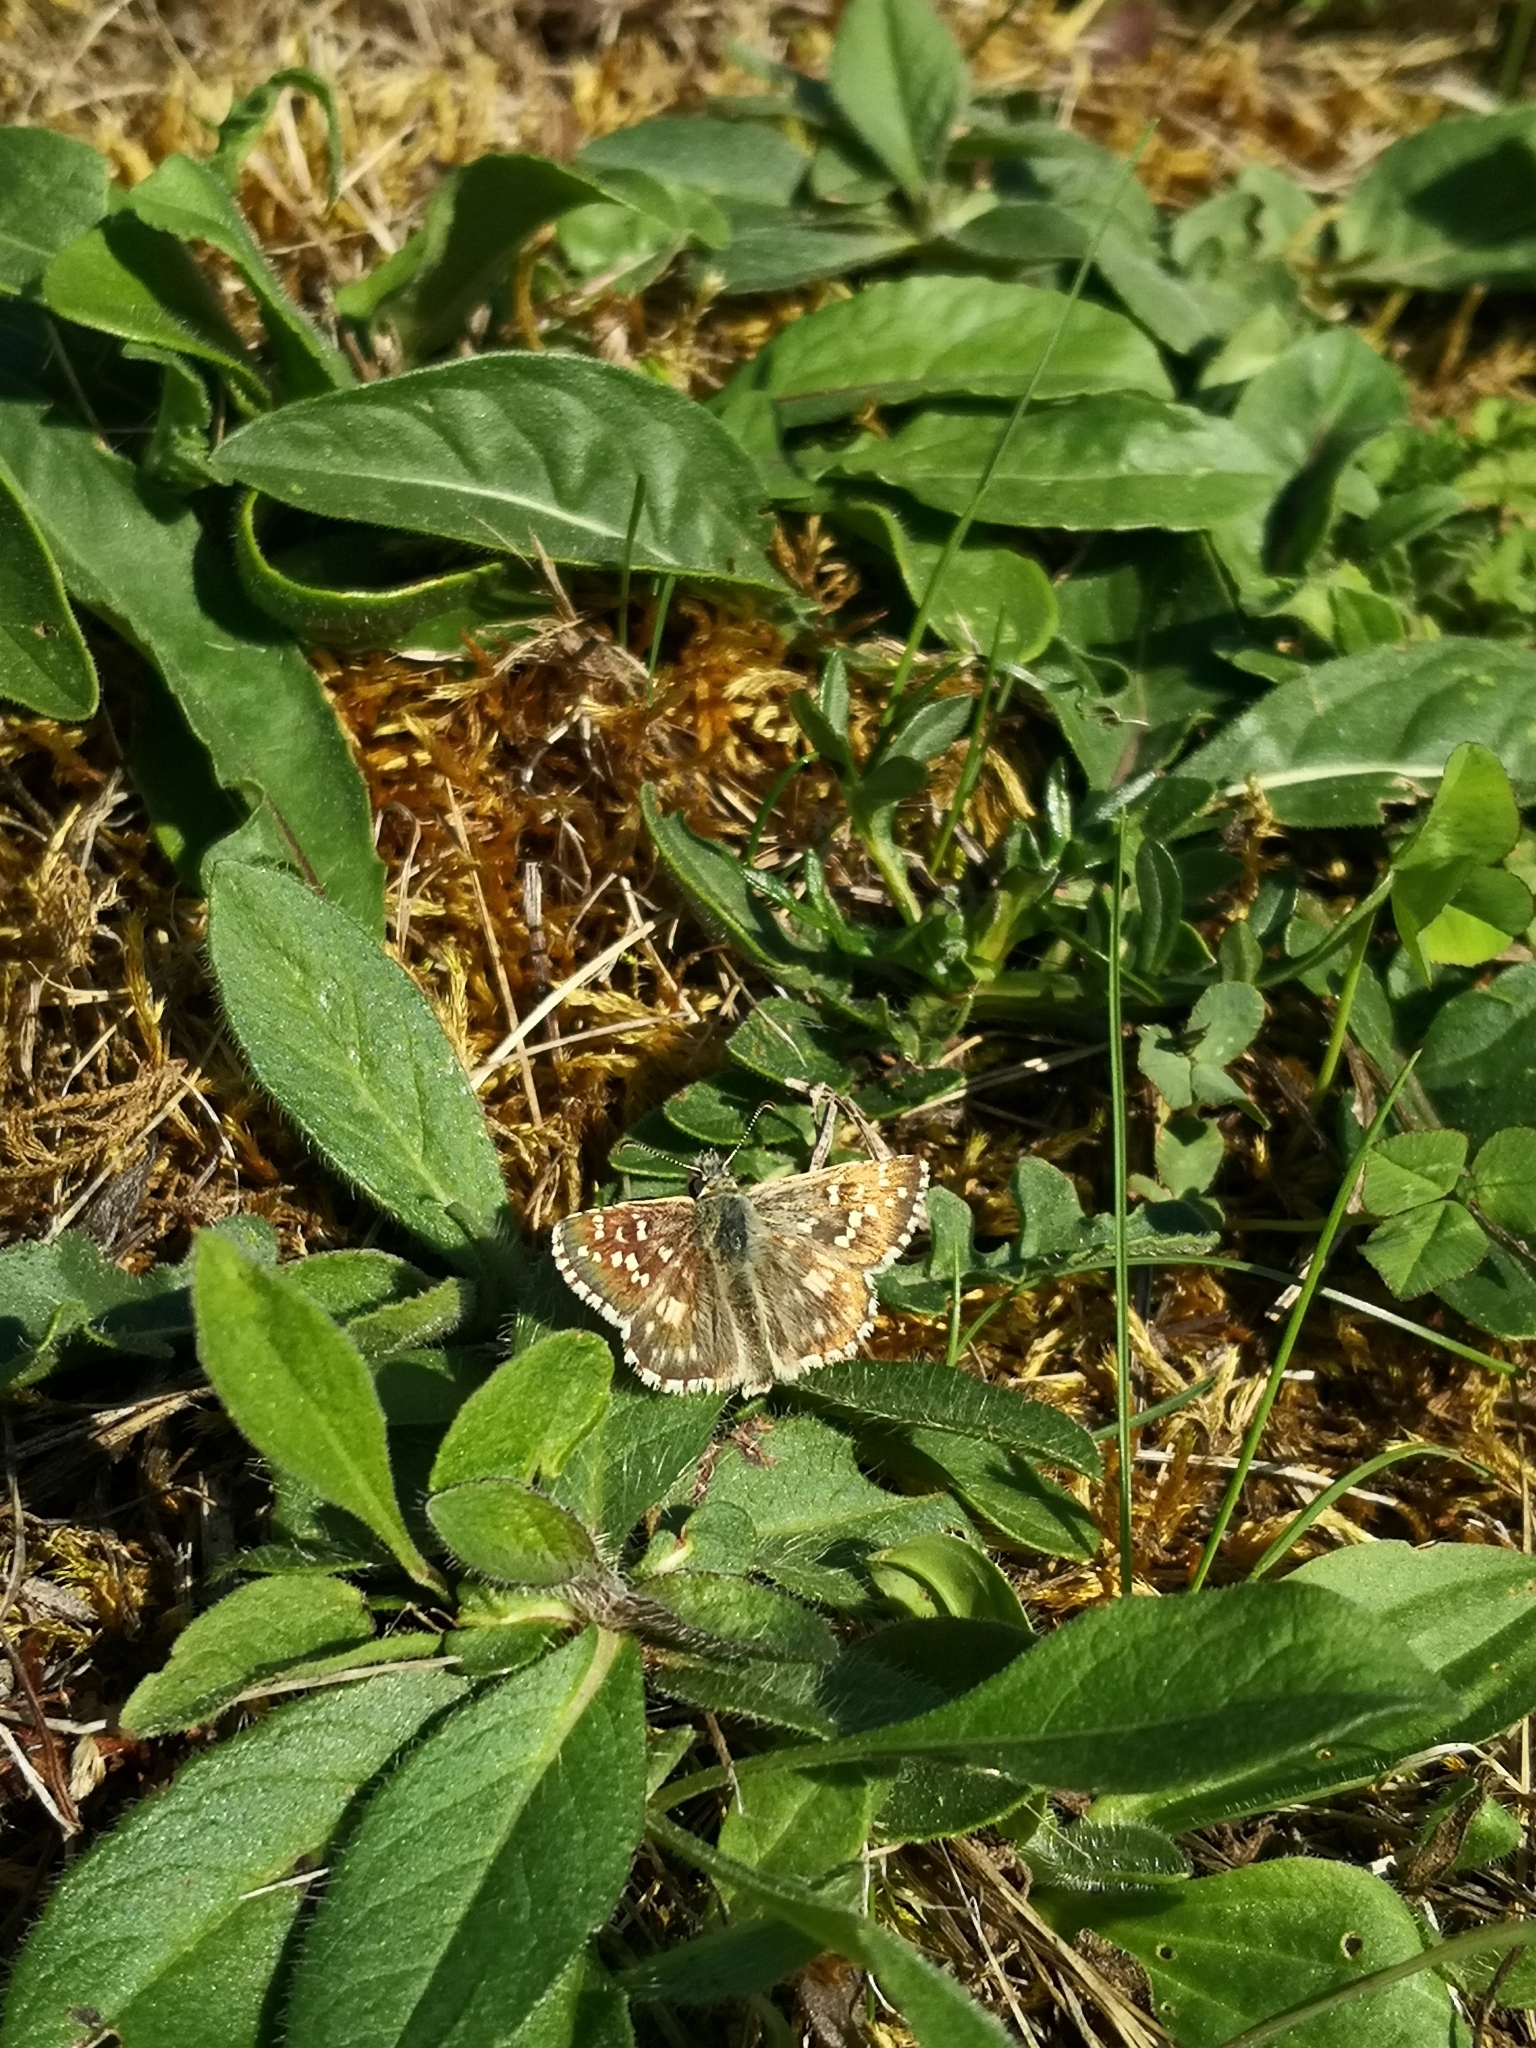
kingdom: Animalia
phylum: Arthropoda
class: Insecta
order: Lepidoptera
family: Hesperiidae
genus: Pyrgus
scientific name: Pyrgus armoricanus
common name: Oberthür's grizzled skipper
